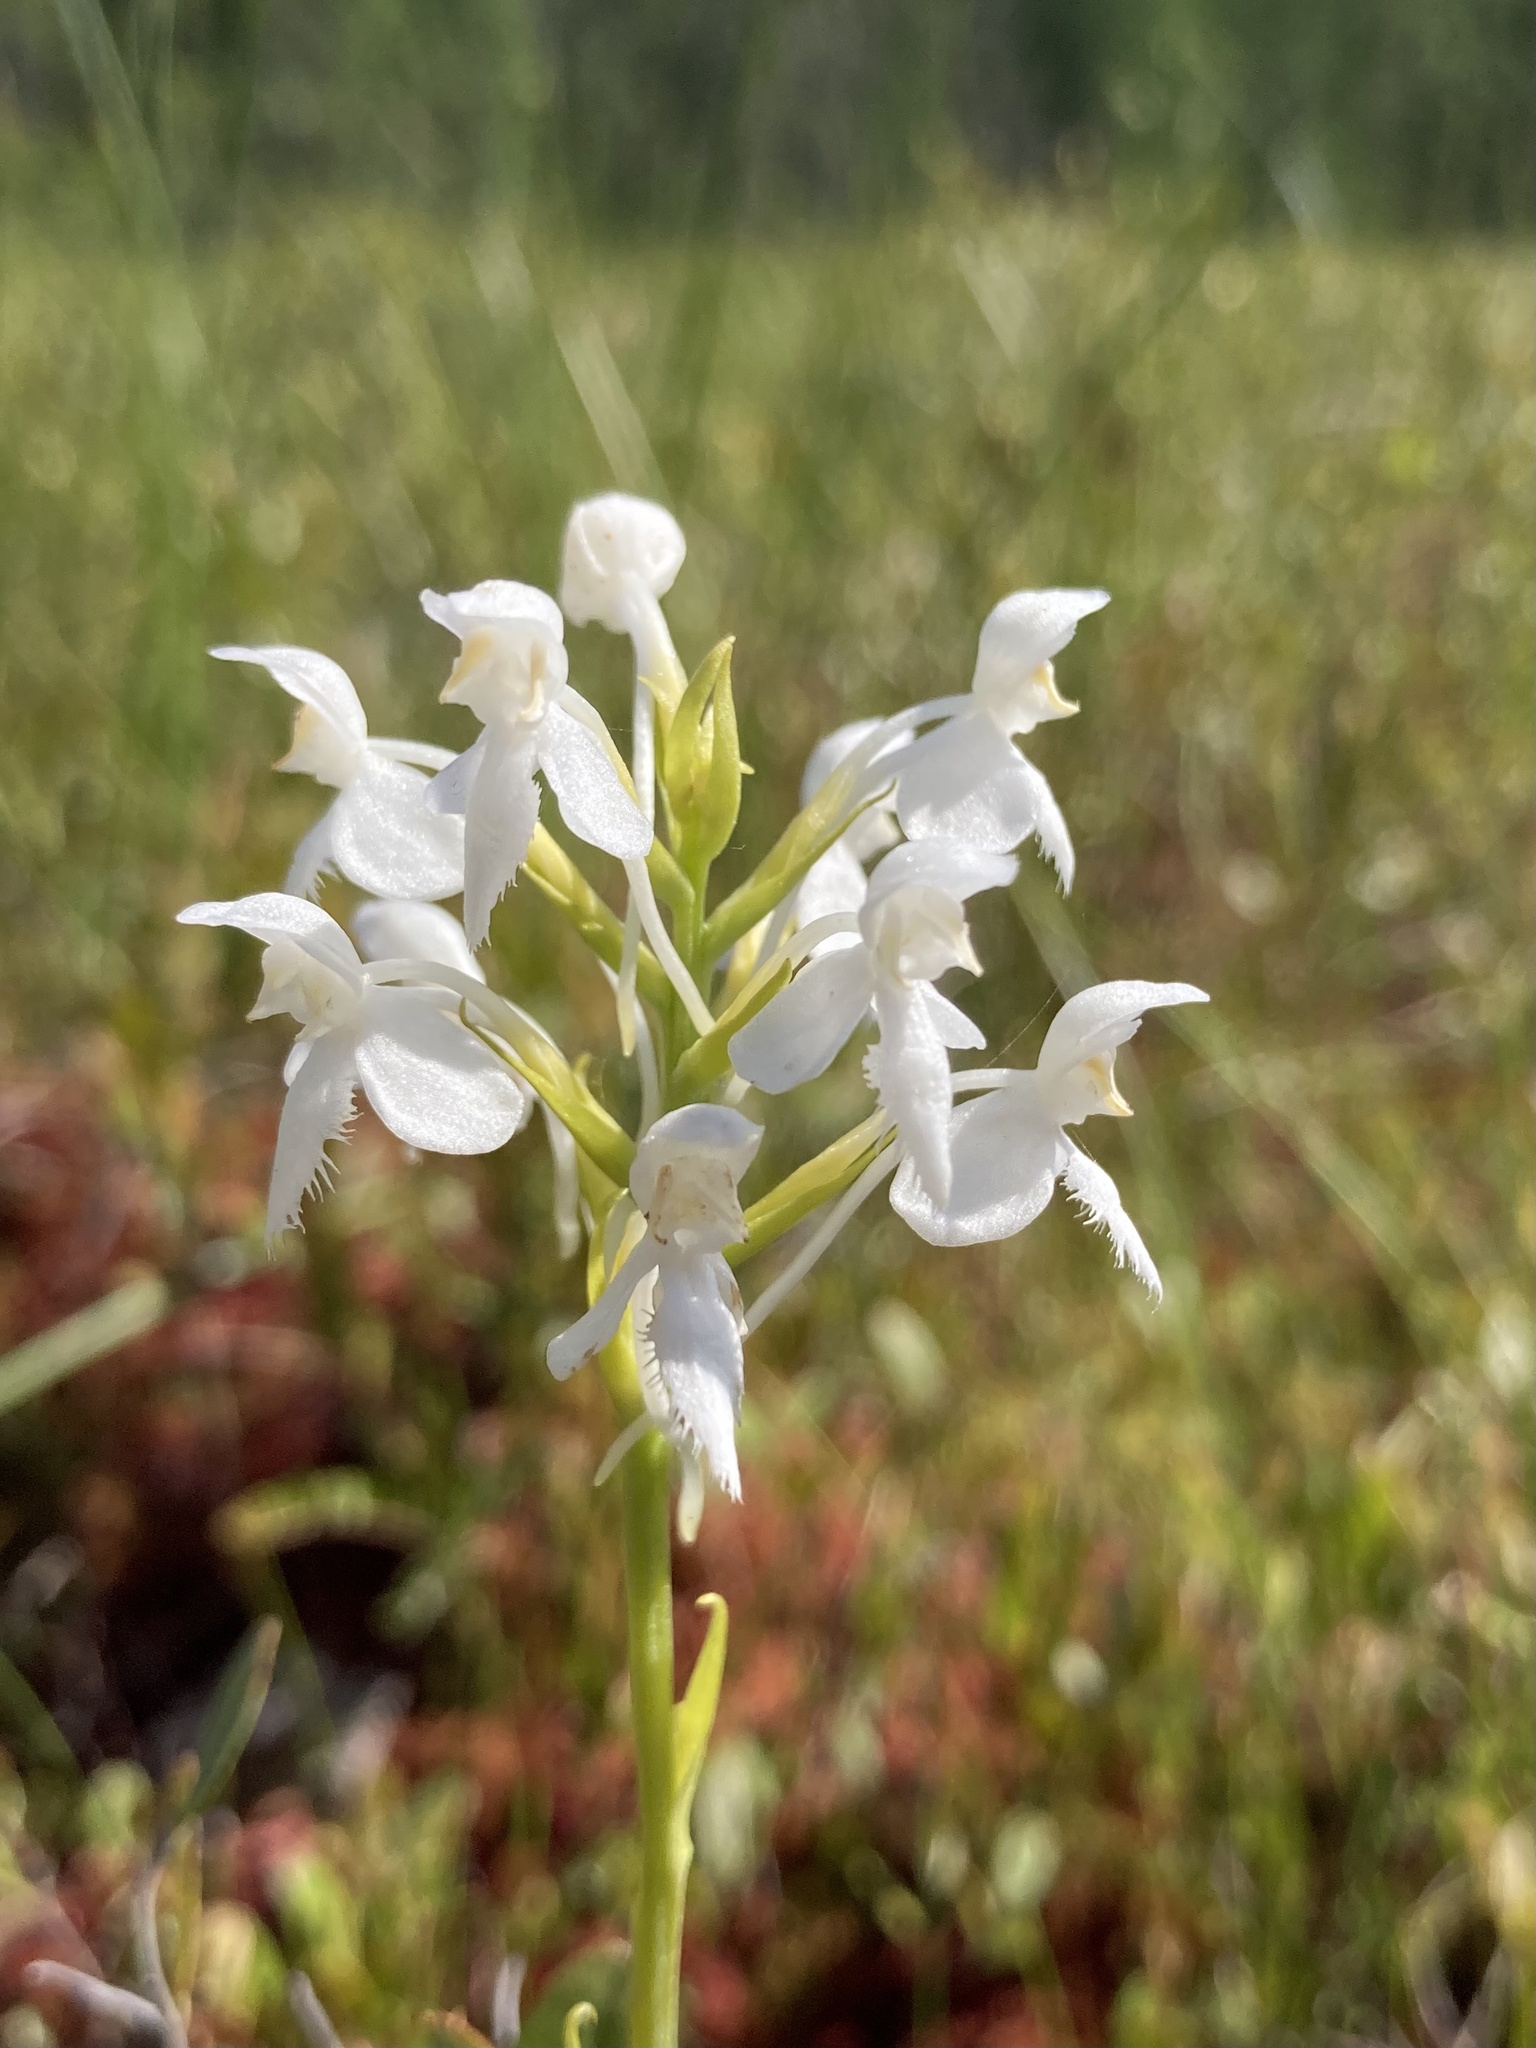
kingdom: Plantae
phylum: Tracheophyta
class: Liliopsida
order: Asparagales
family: Orchidaceae
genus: Platanthera
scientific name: Platanthera blephariglottis
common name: White fringed orchid
